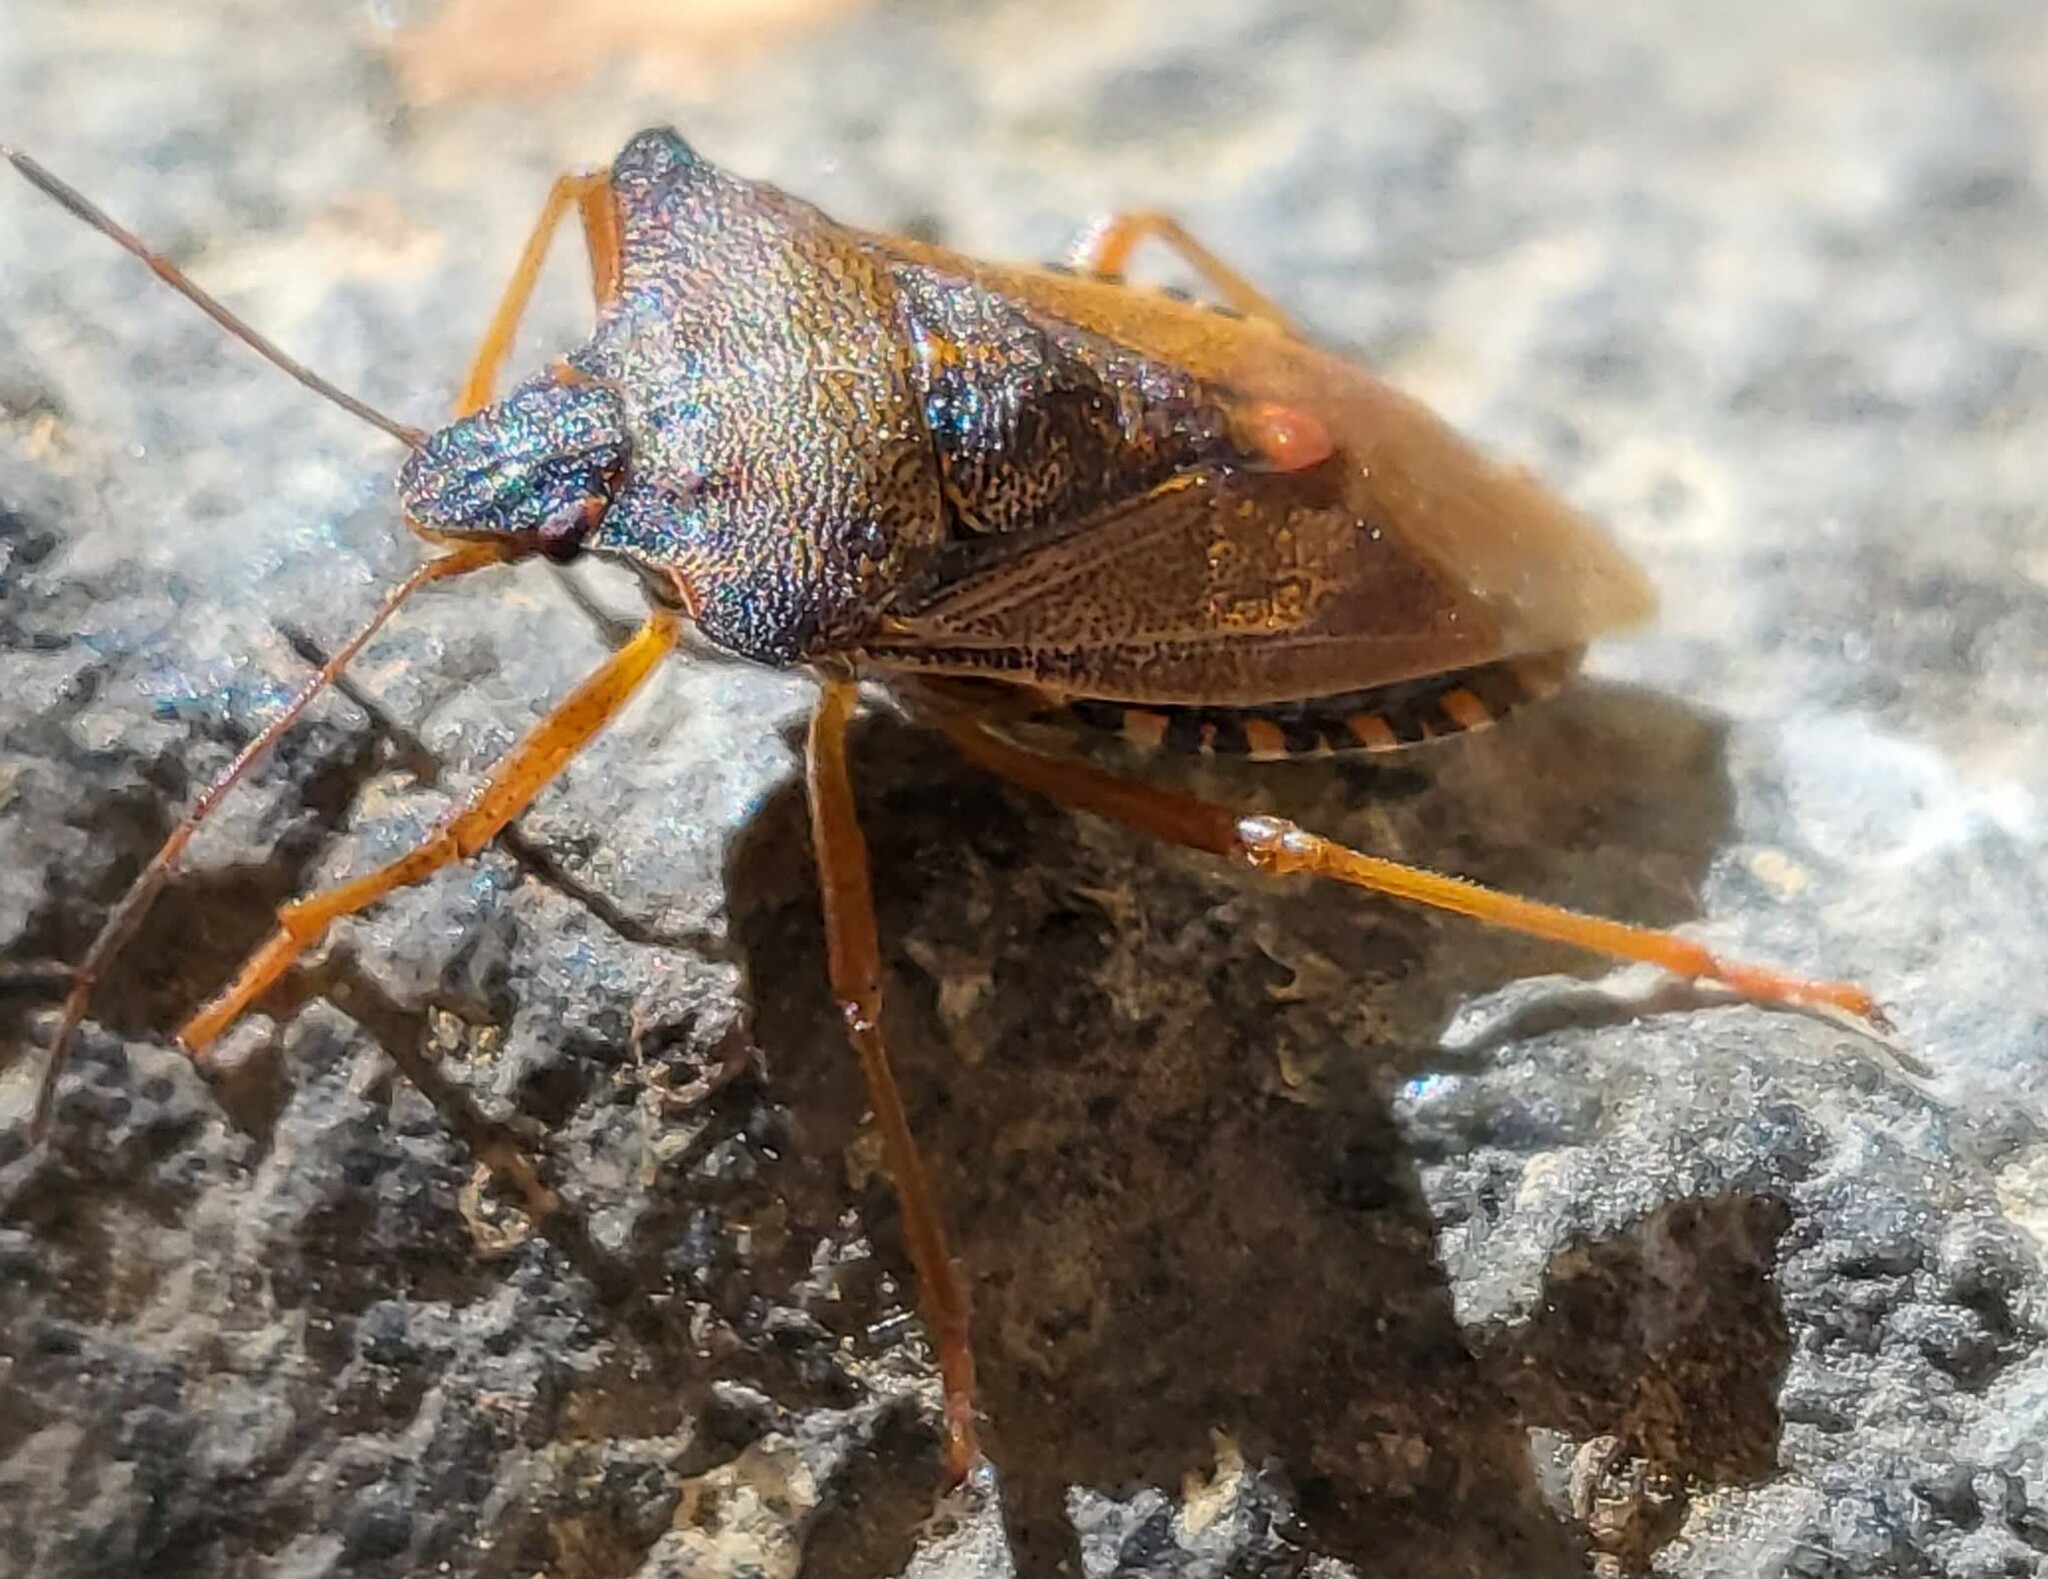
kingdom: Animalia
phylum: Arthropoda
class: Insecta
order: Hemiptera
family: Pentatomidae
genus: Pentatoma
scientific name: Pentatoma rufipes
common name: Forest bug
